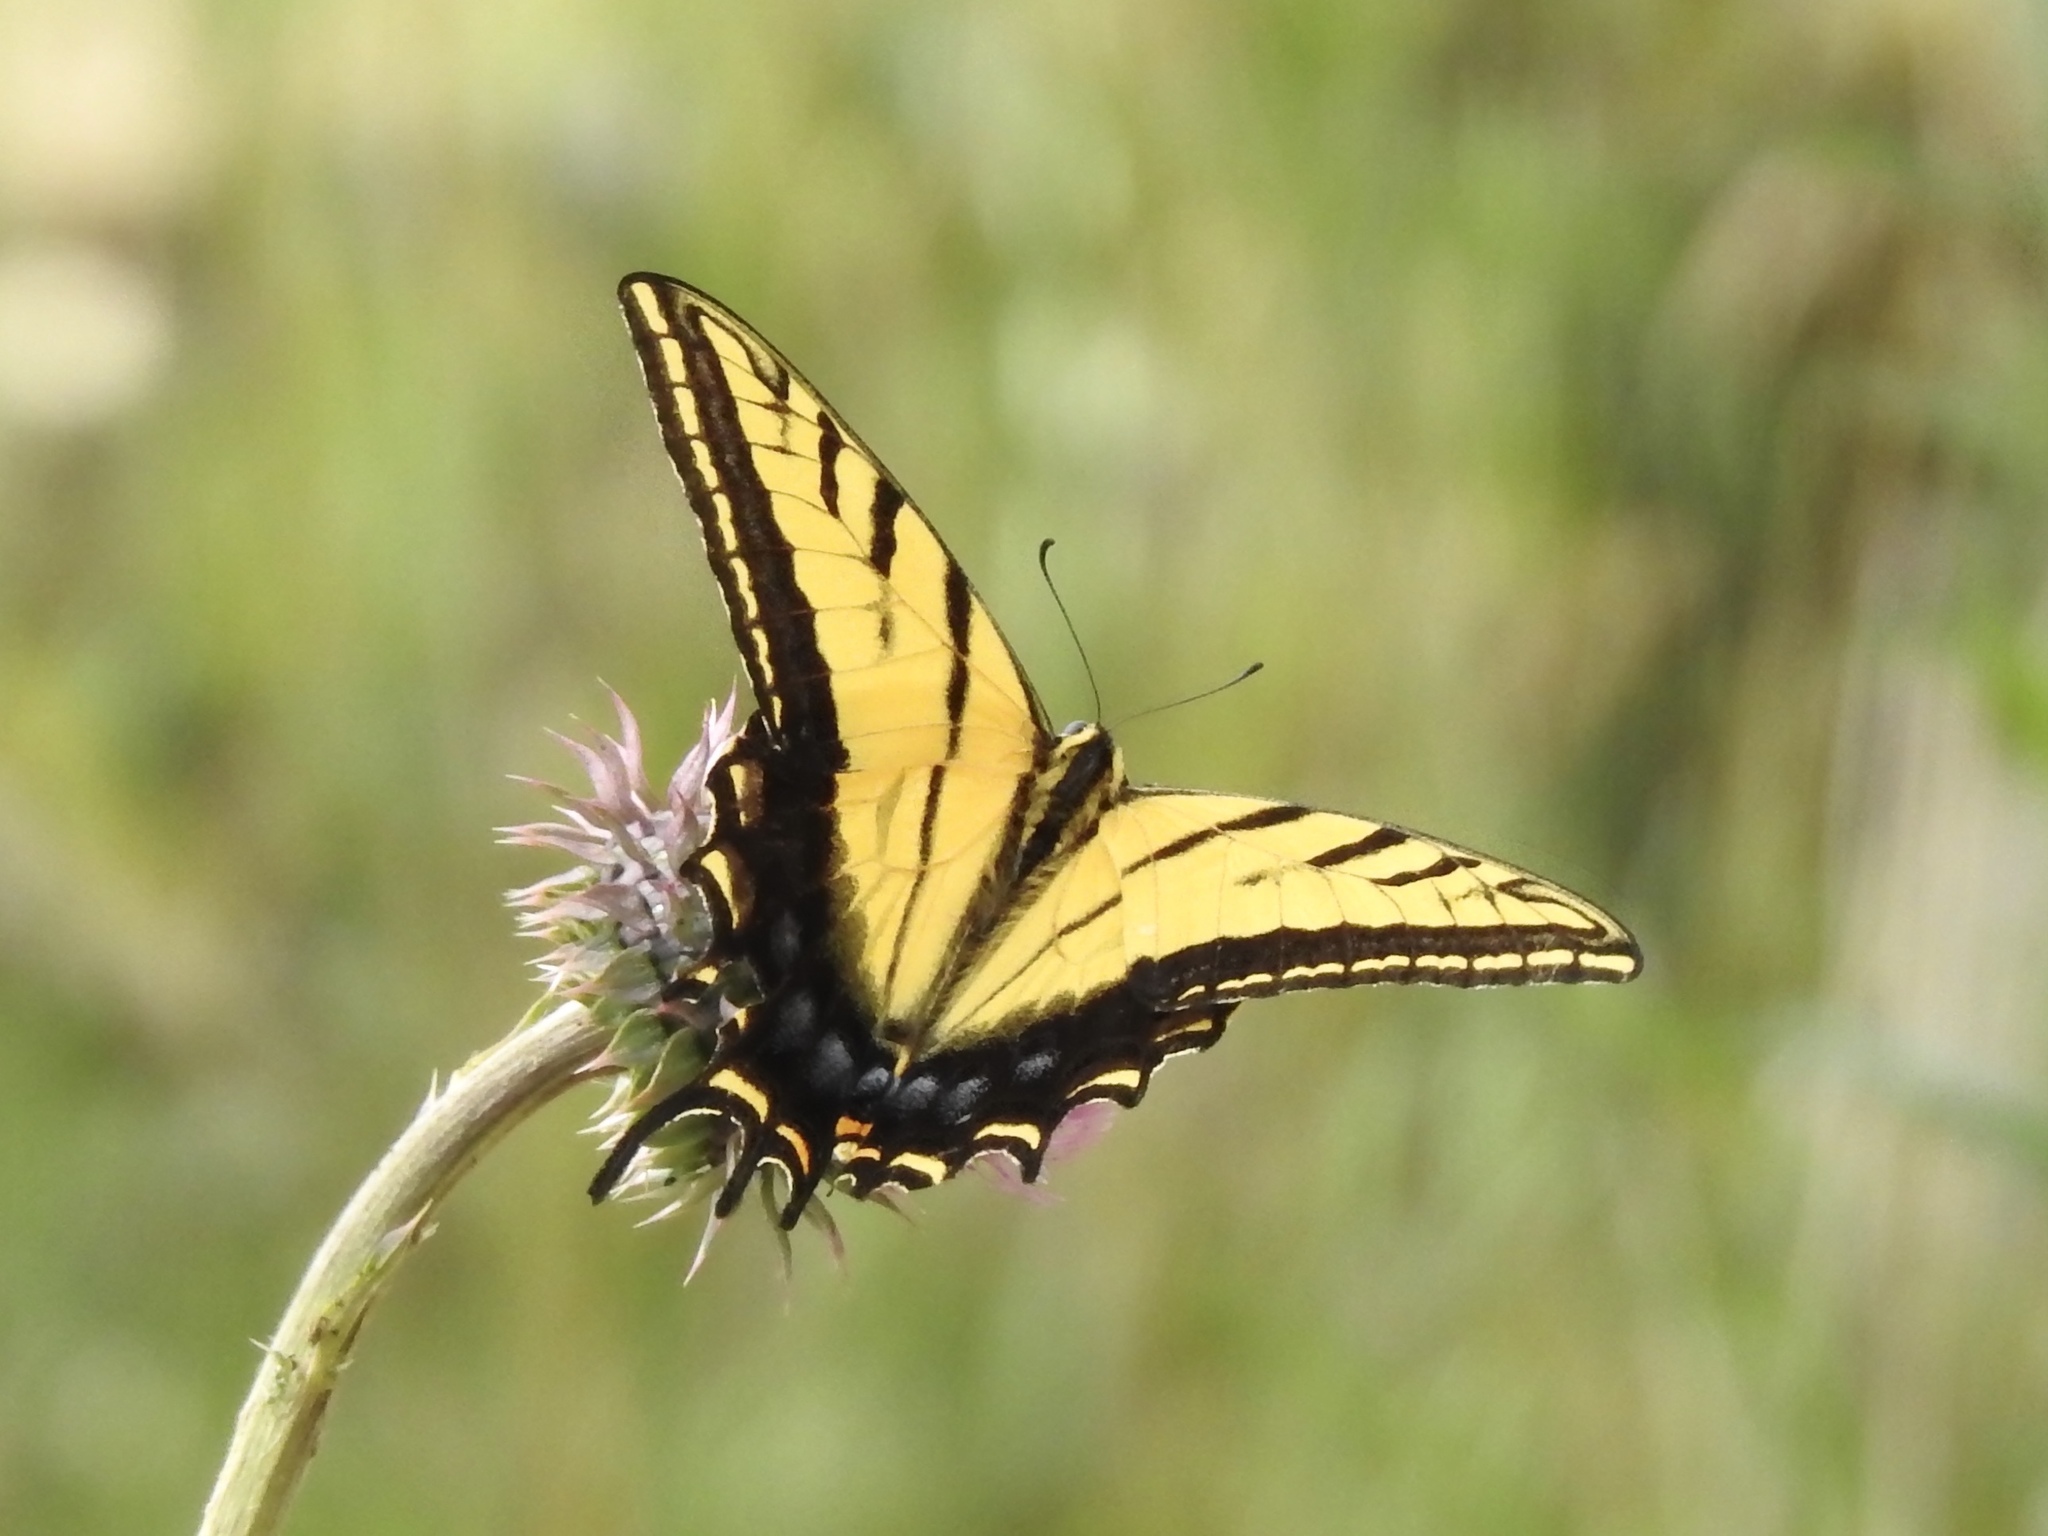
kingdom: Animalia
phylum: Arthropoda
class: Insecta
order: Lepidoptera
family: Papilionidae
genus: Papilio
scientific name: Papilio multicaudata
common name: Two-tailed tiger swallowtail
